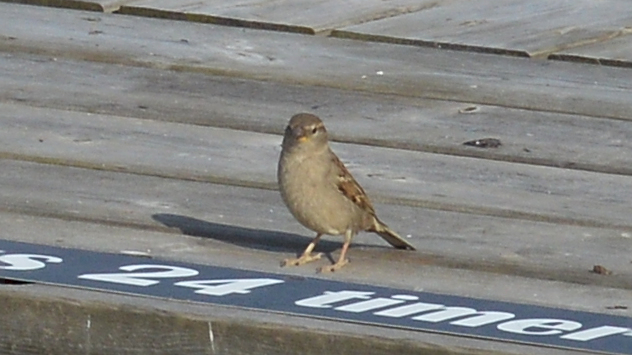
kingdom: Animalia
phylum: Chordata
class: Aves
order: Passeriformes
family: Passeridae
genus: Passer
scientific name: Passer domesticus
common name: House sparrow
